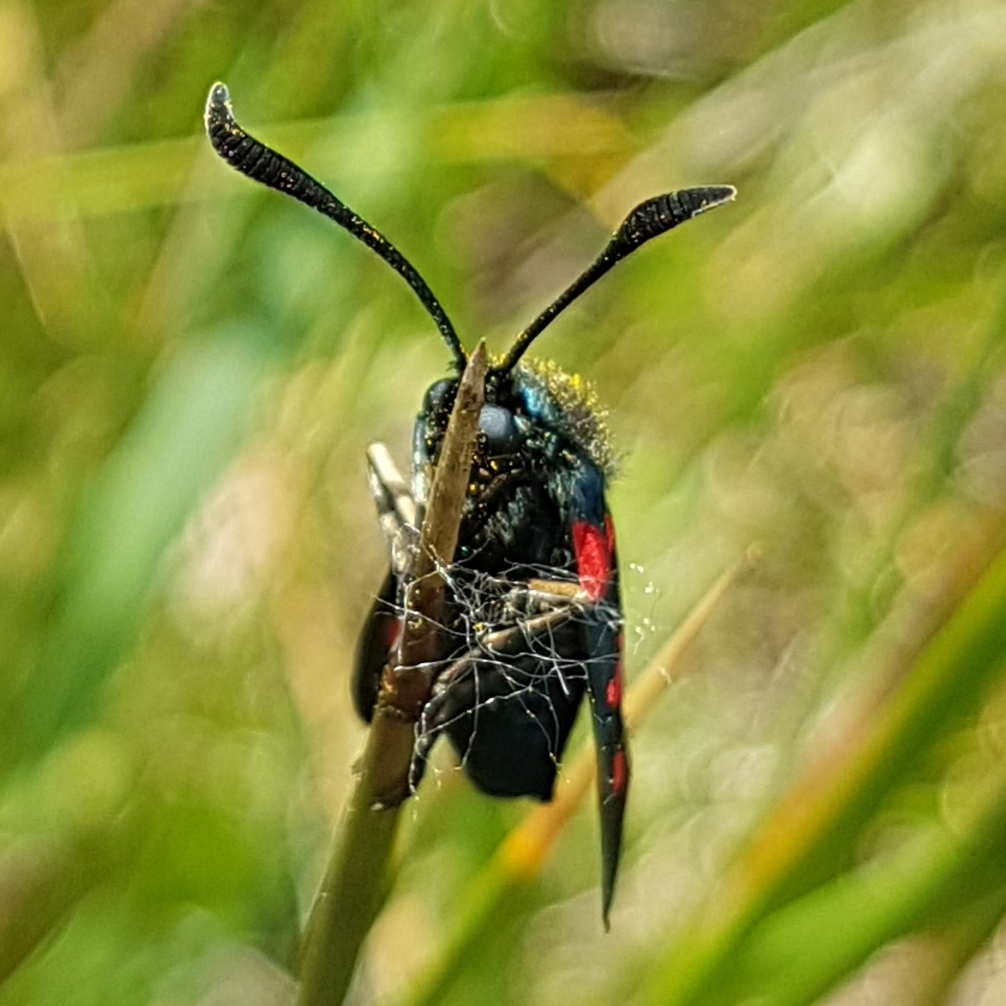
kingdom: Animalia
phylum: Arthropoda
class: Insecta
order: Lepidoptera
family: Zygaenidae
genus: Zygaena
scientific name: Zygaena trifolii
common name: Five-spot burnet
